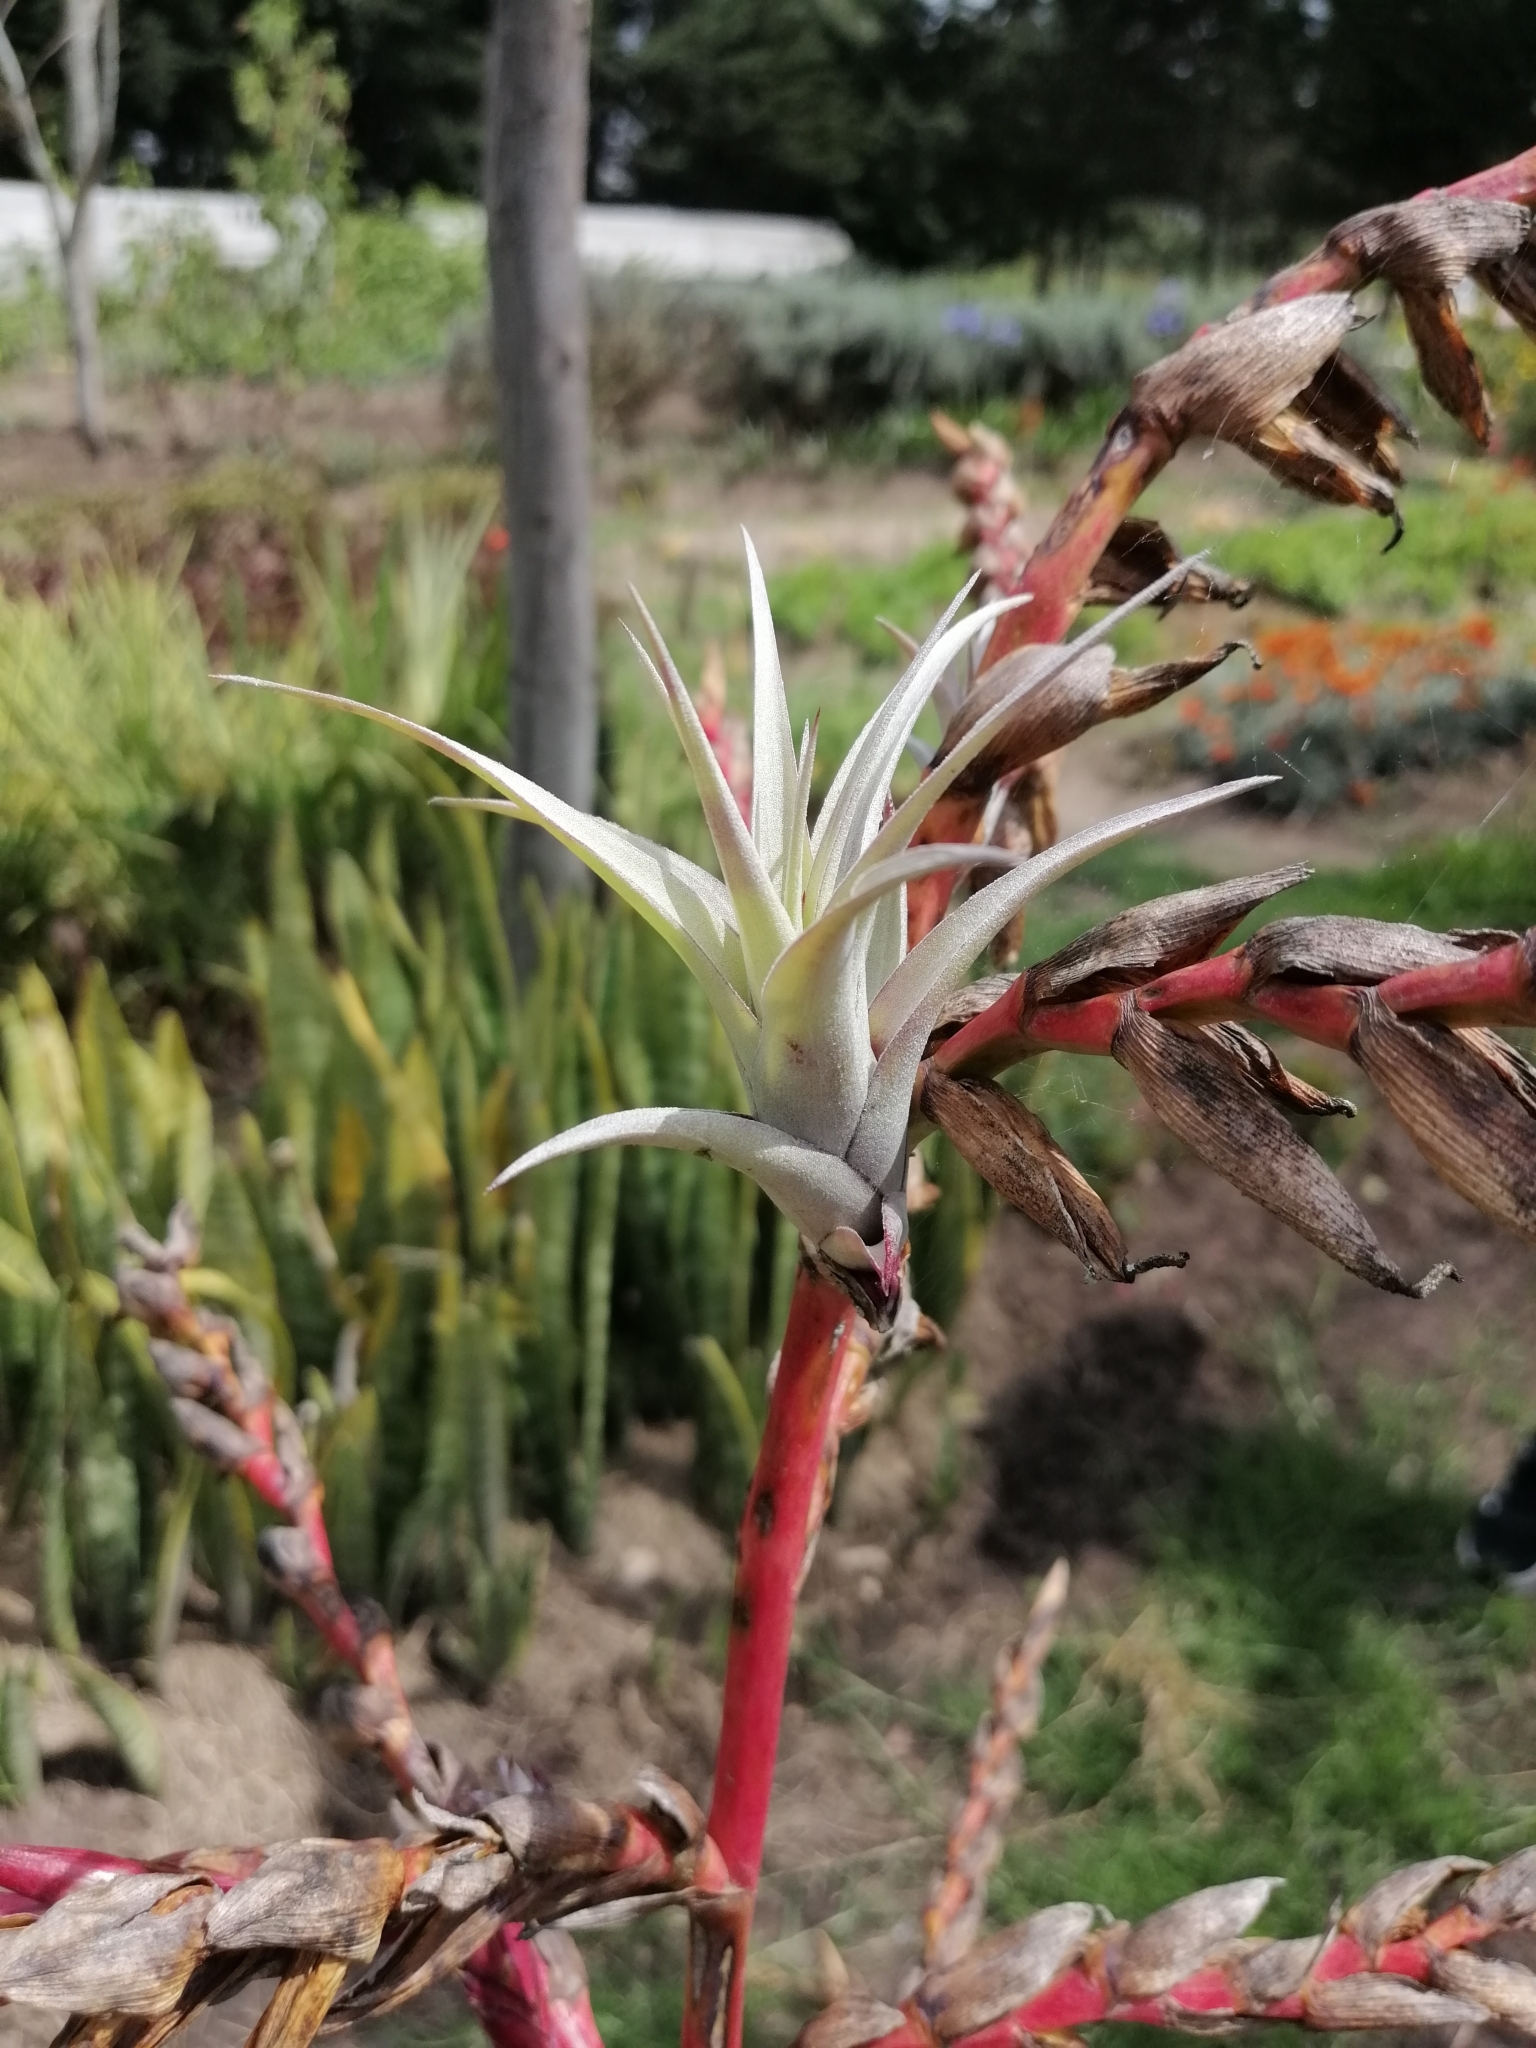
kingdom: Plantae
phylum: Tracheophyta
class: Liliopsida
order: Poales
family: Bromeliaceae
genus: Tillandsia
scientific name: Tillandsia secunda
